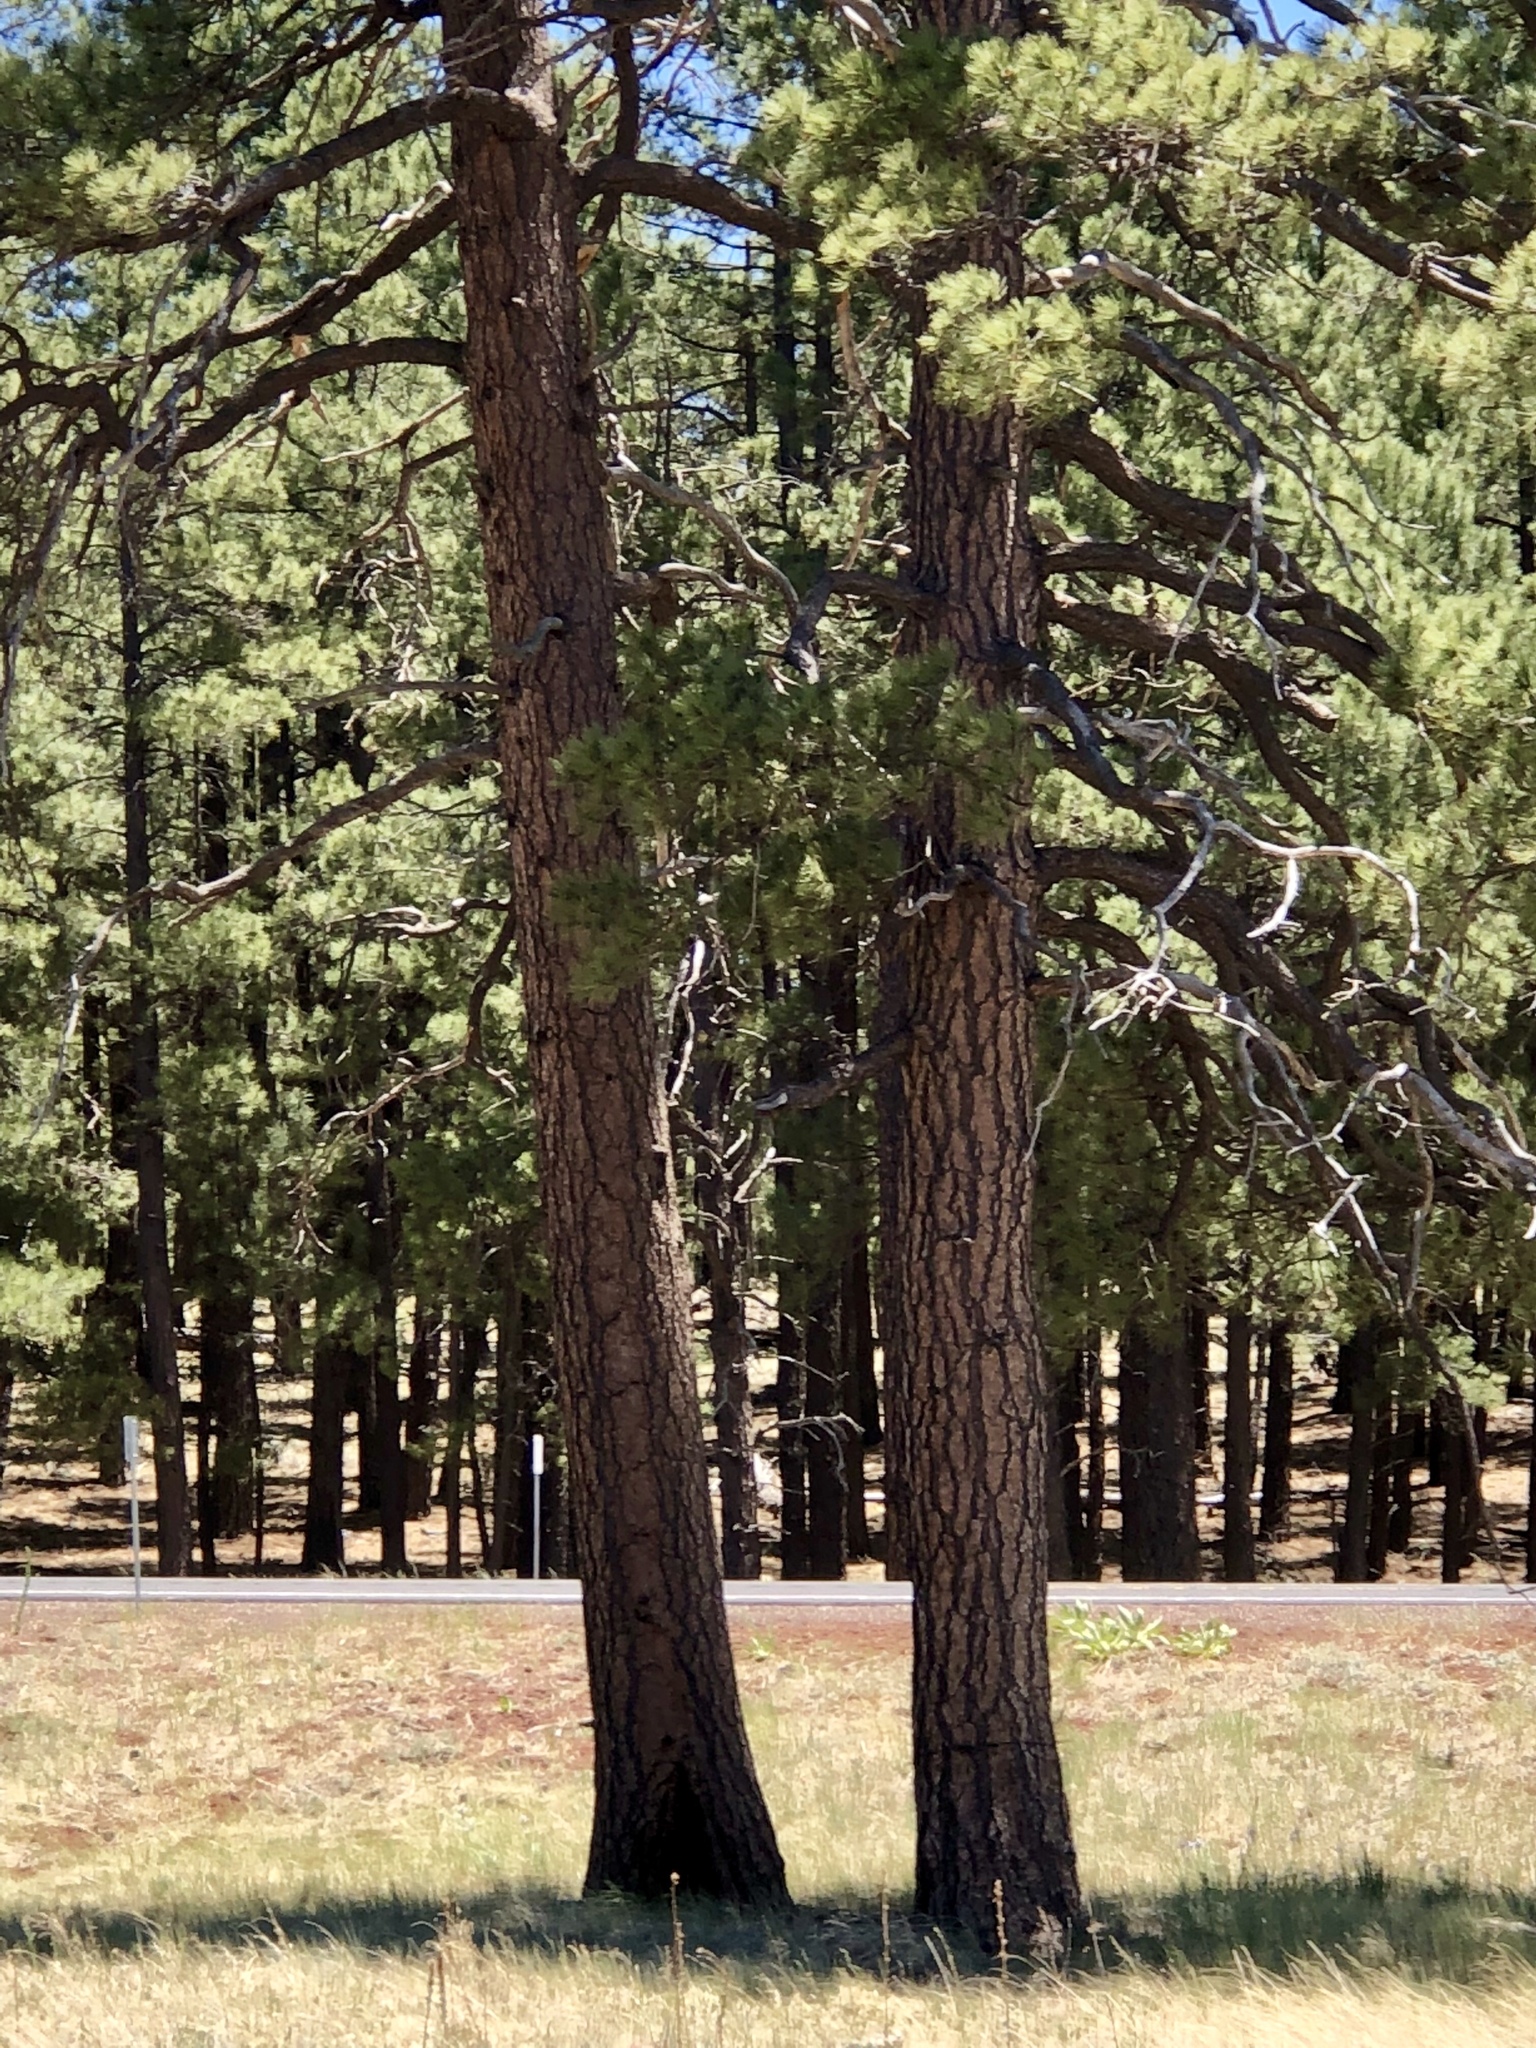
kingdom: Plantae
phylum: Tracheophyta
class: Pinopsida
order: Pinales
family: Pinaceae
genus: Pinus
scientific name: Pinus ponderosa
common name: Western yellow-pine
